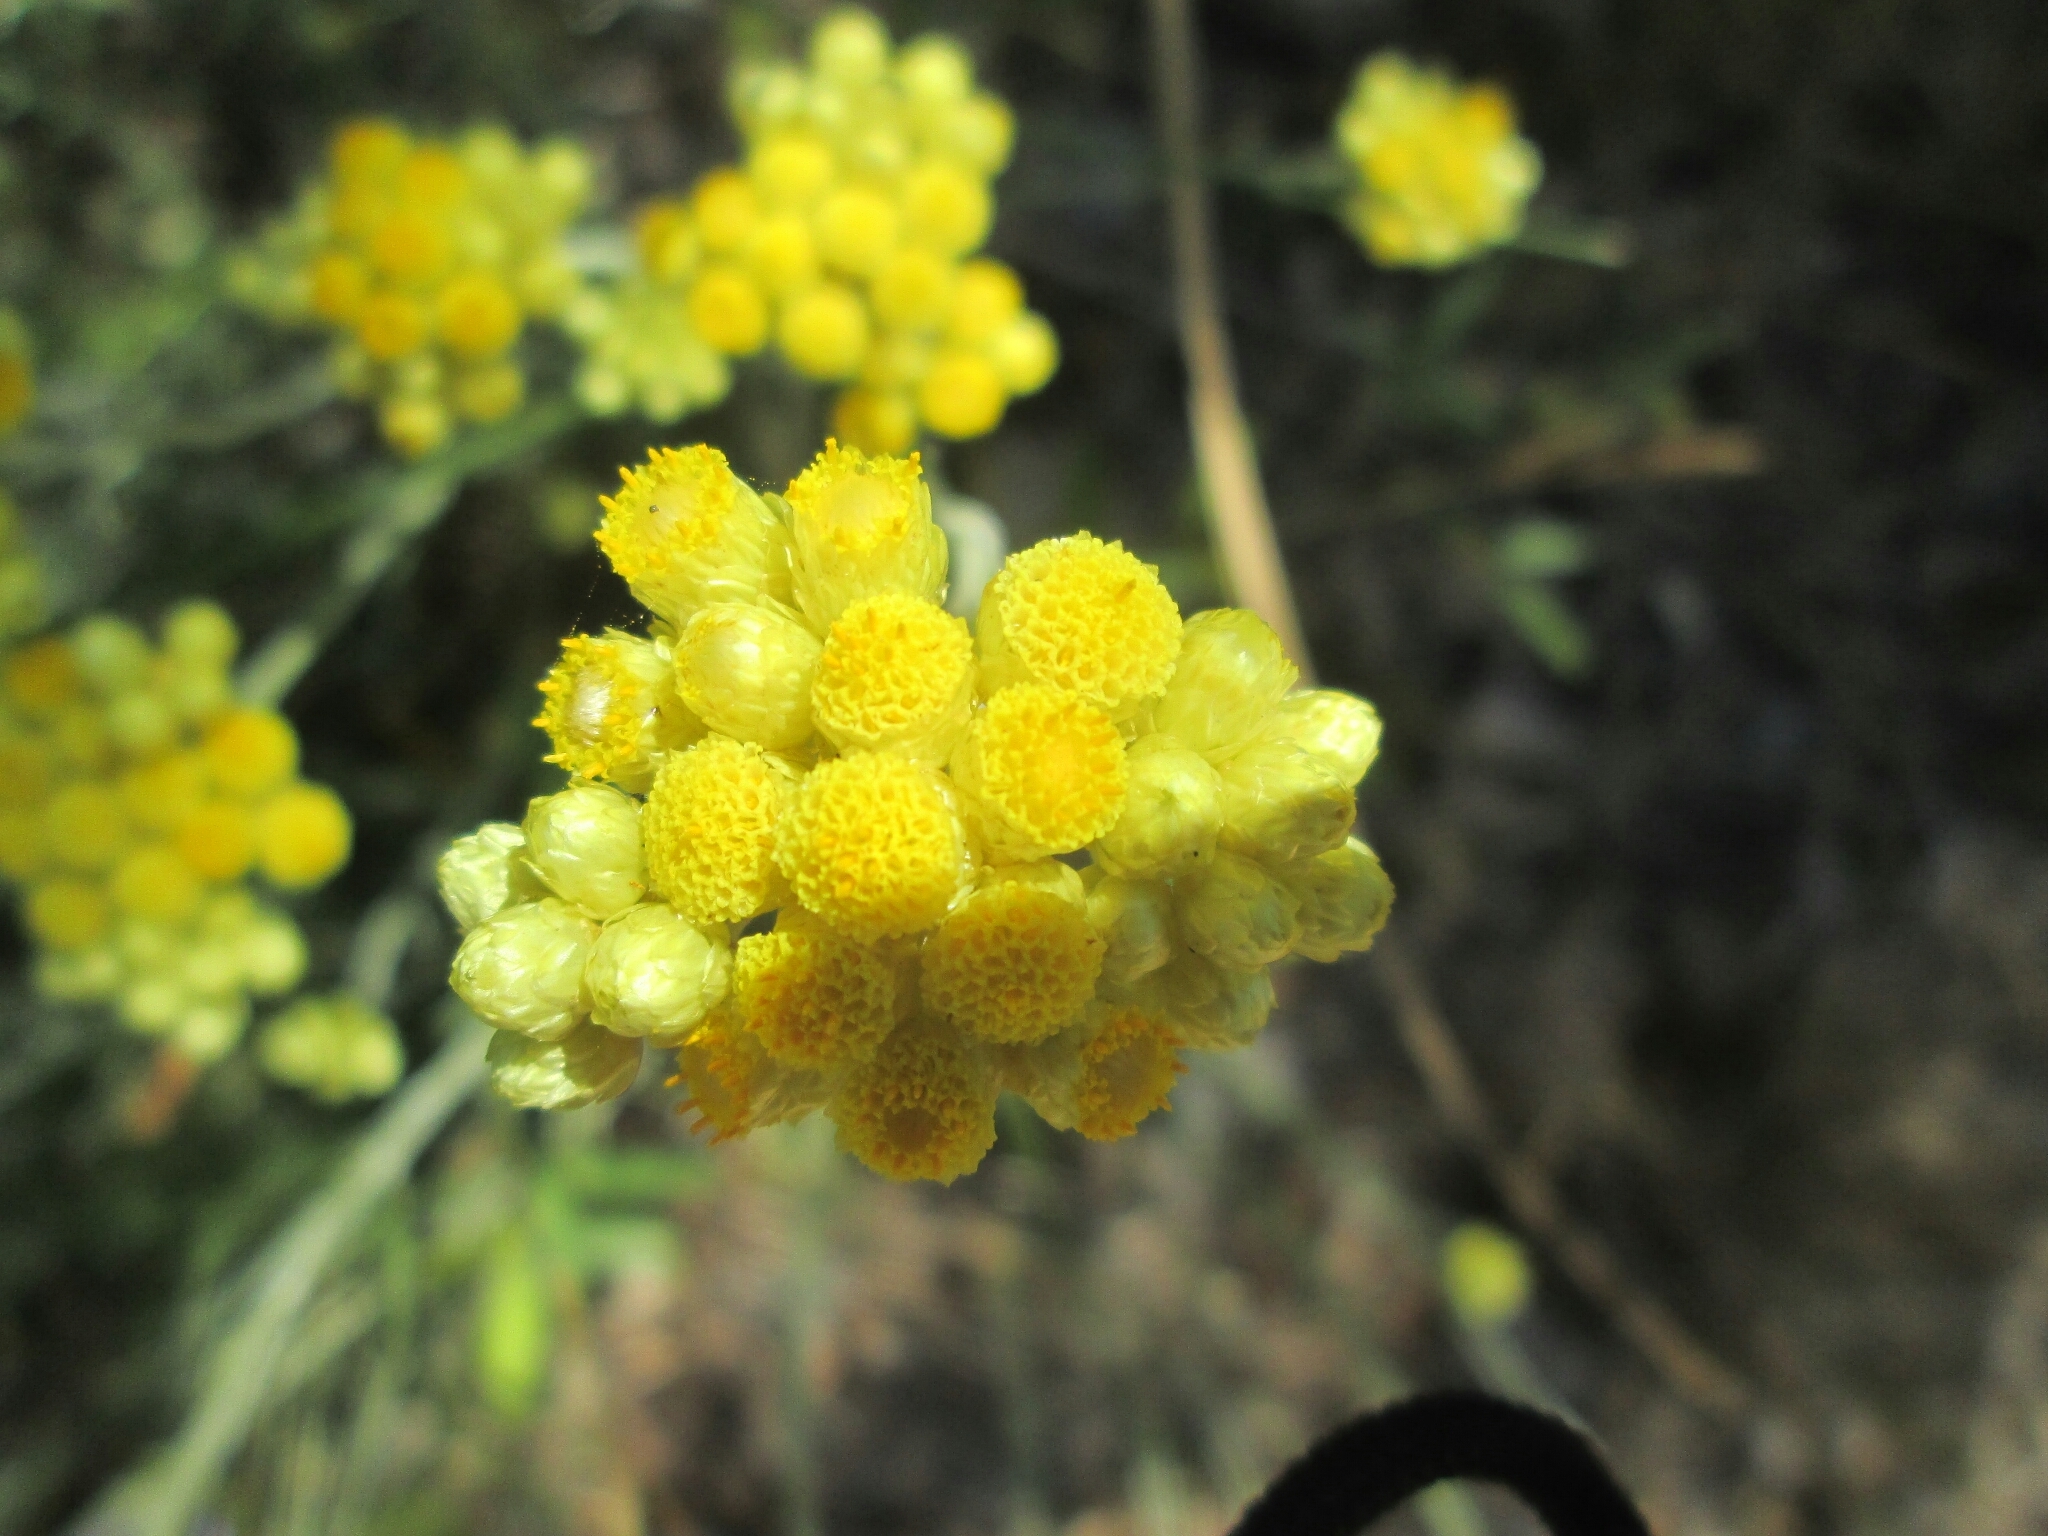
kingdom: Plantae
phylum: Tracheophyta
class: Magnoliopsida
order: Asterales
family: Asteraceae
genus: Helichrysum
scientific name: Helichrysum stoechas
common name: Goldilocks
